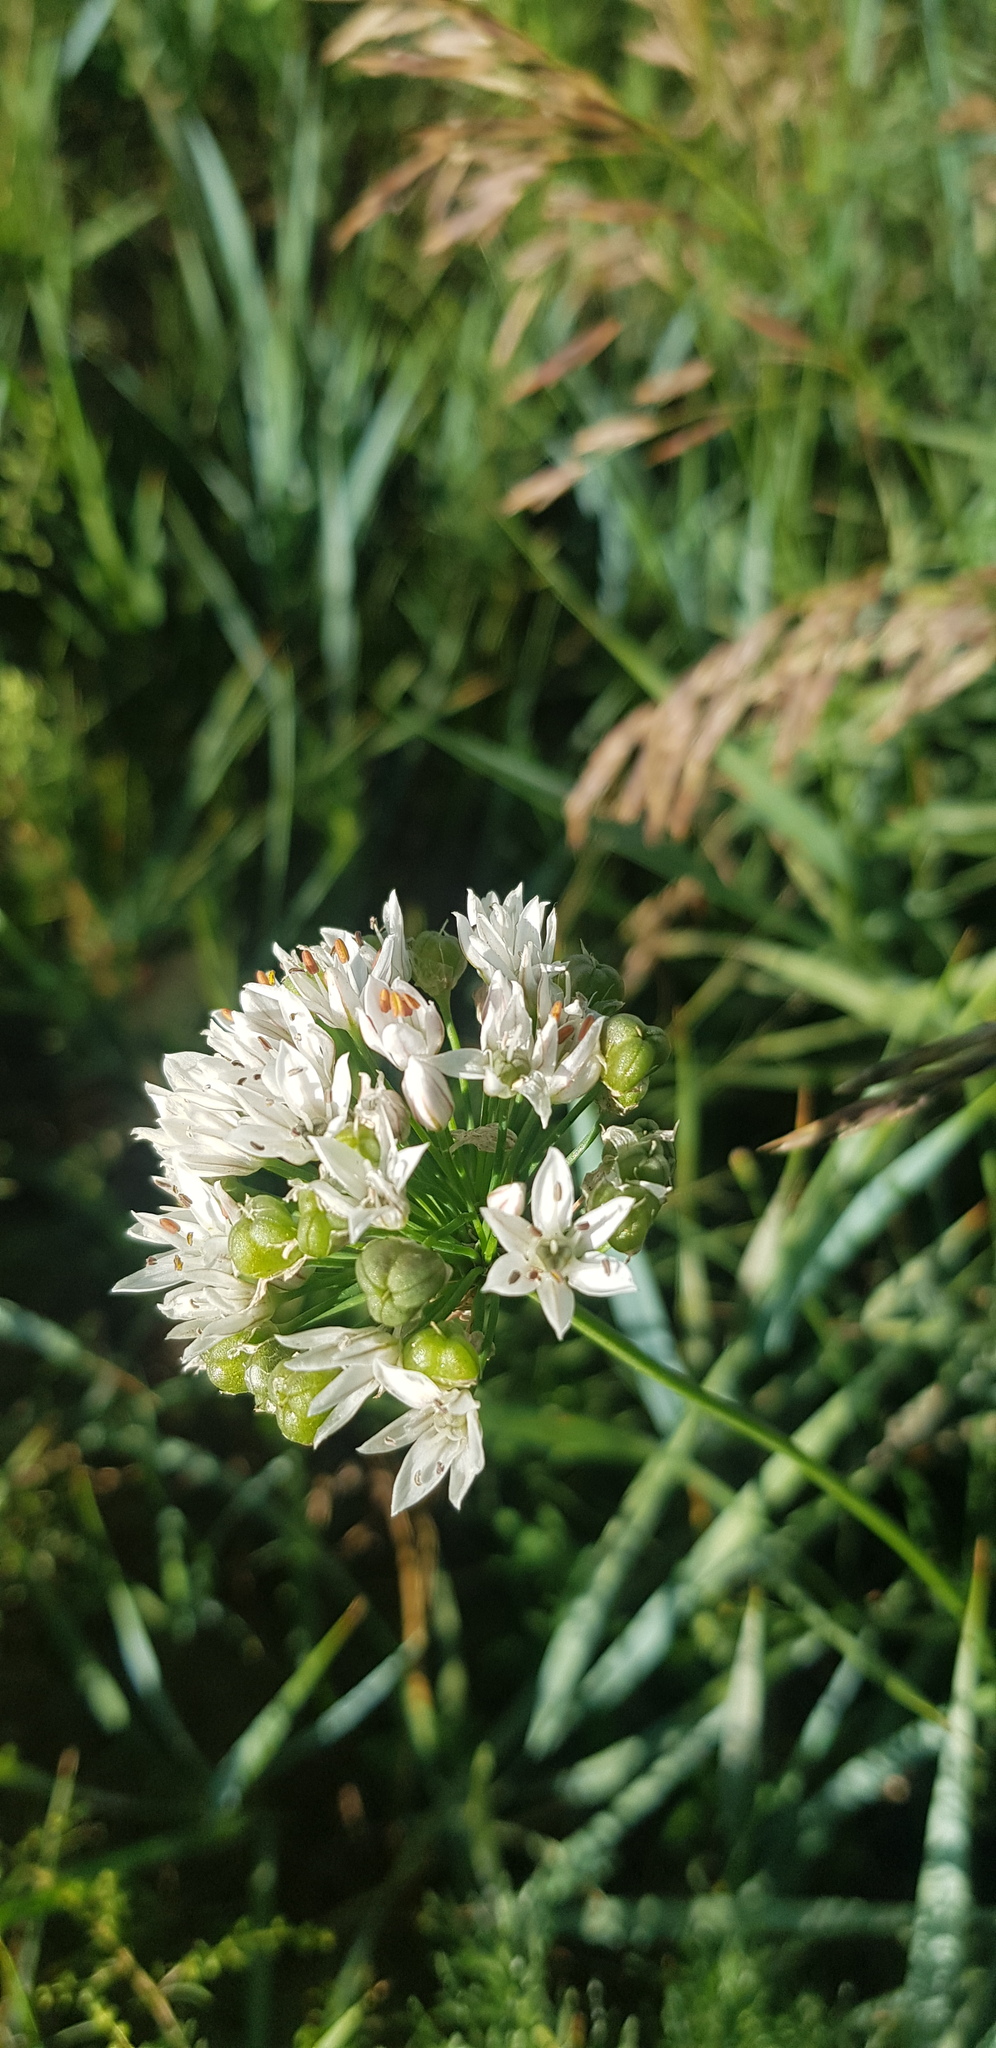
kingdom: Plantae
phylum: Tracheophyta
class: Liliopsida
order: Asparagales
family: Amaryllidaceae
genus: Allium
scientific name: Allium ramosum
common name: Fragrant garlic
